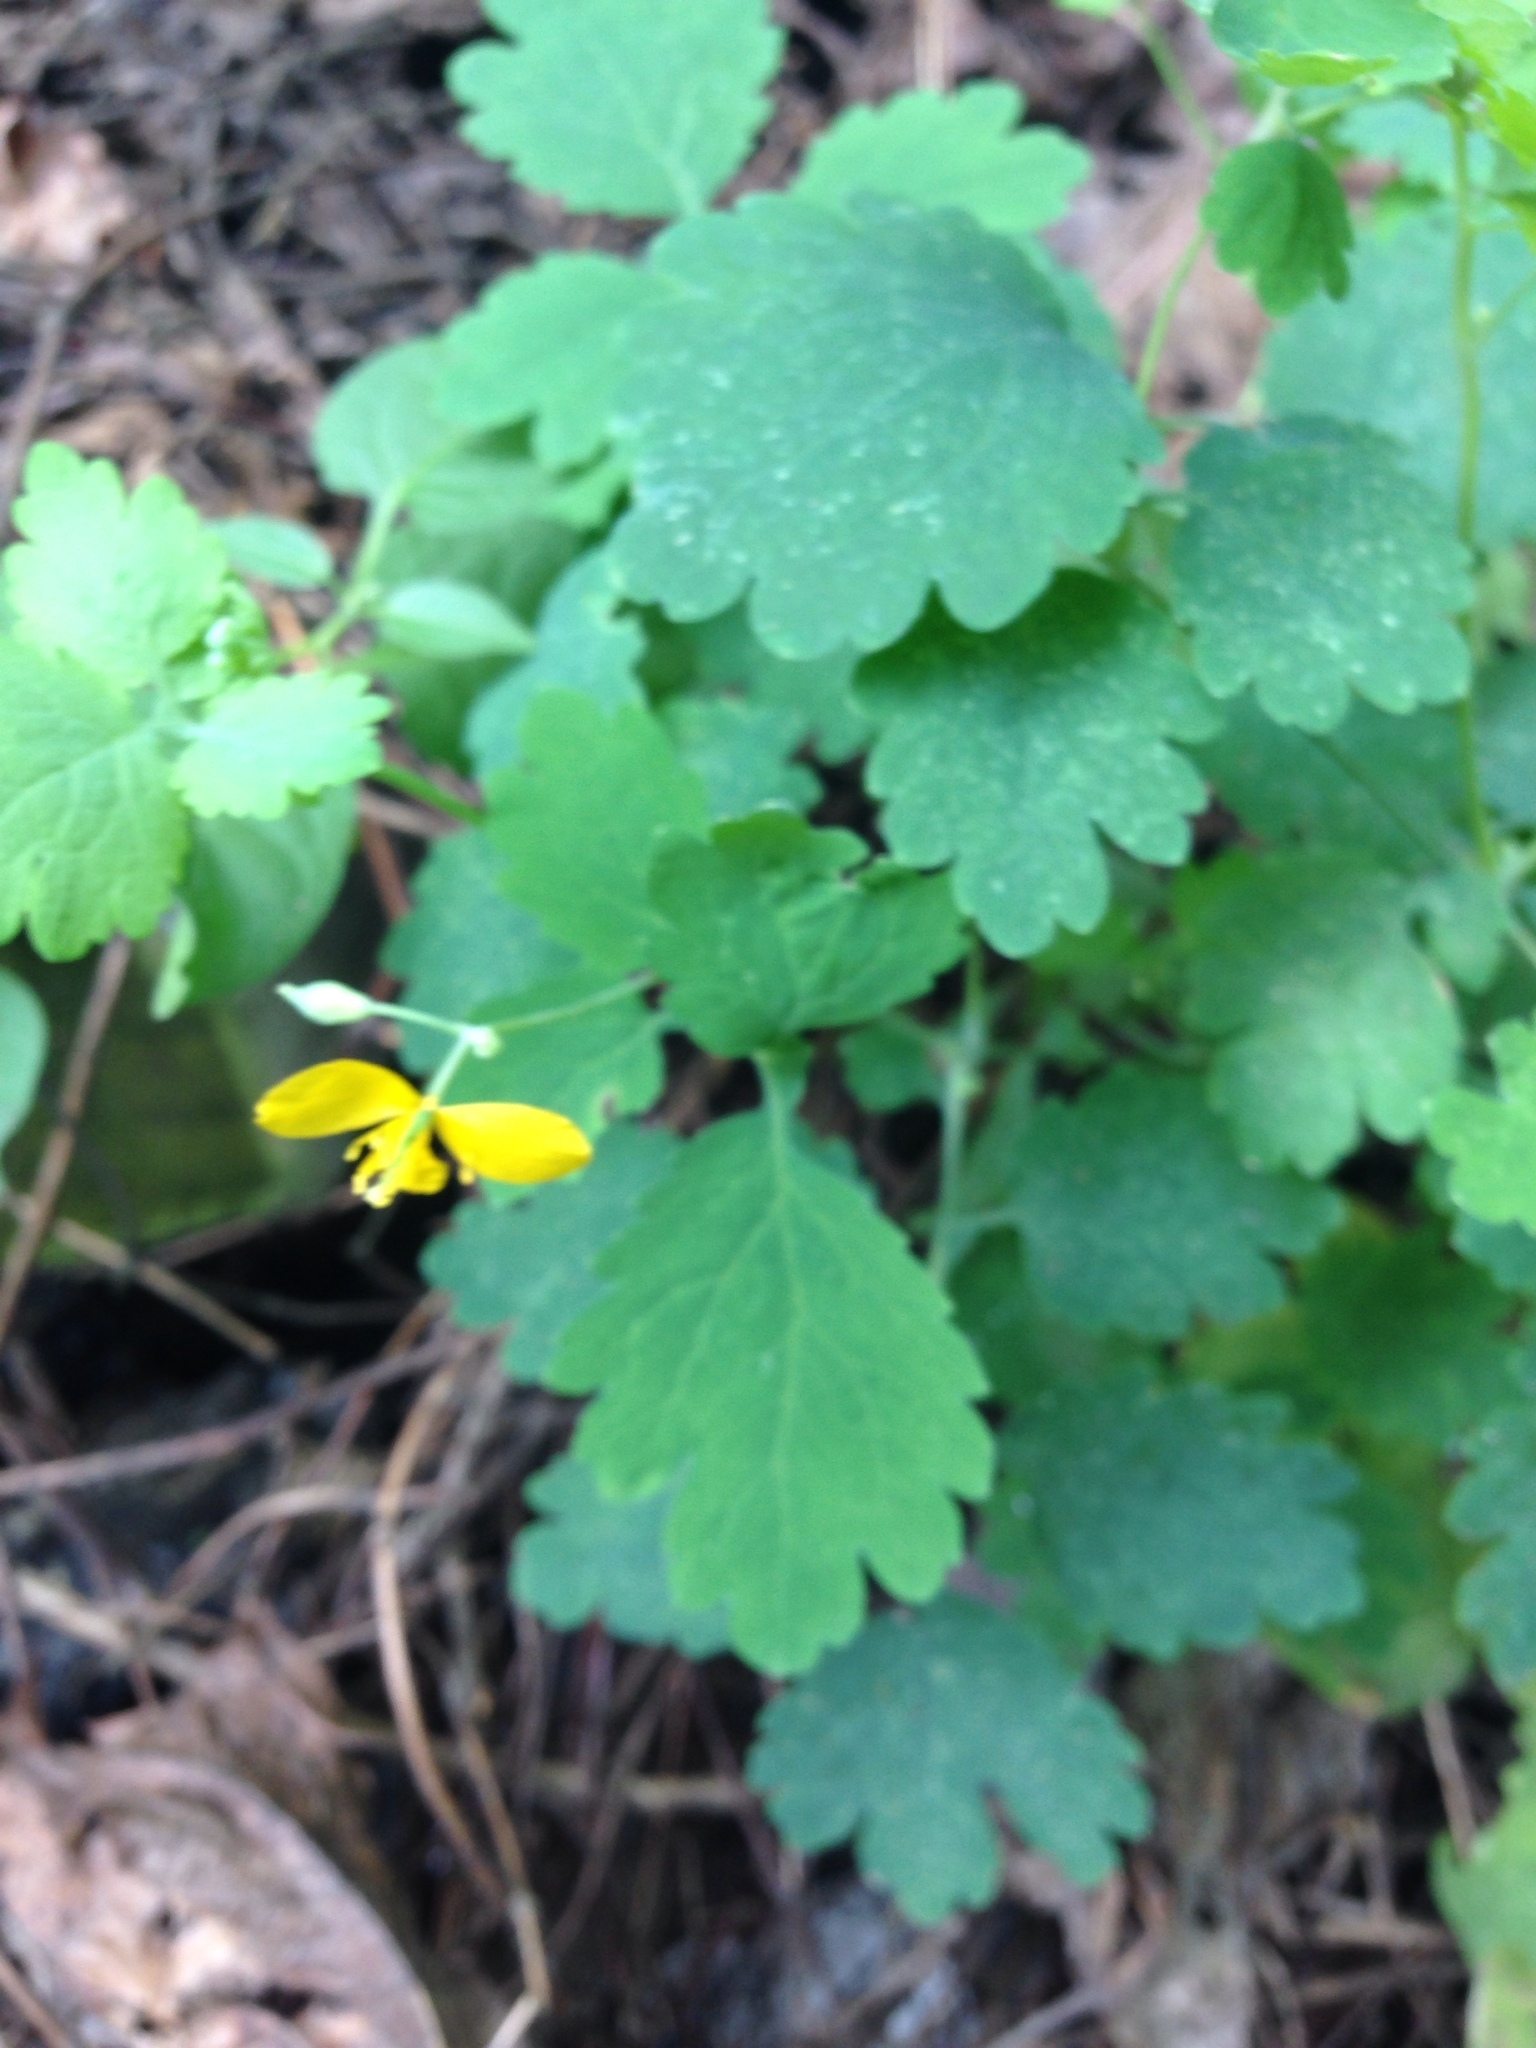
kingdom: Plantae
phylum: Tracheophyta
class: Magnoliopsida
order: Ranunculales
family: Papaveraceae
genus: Chelidonium
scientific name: Chelidonium majus
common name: Greater celandine
